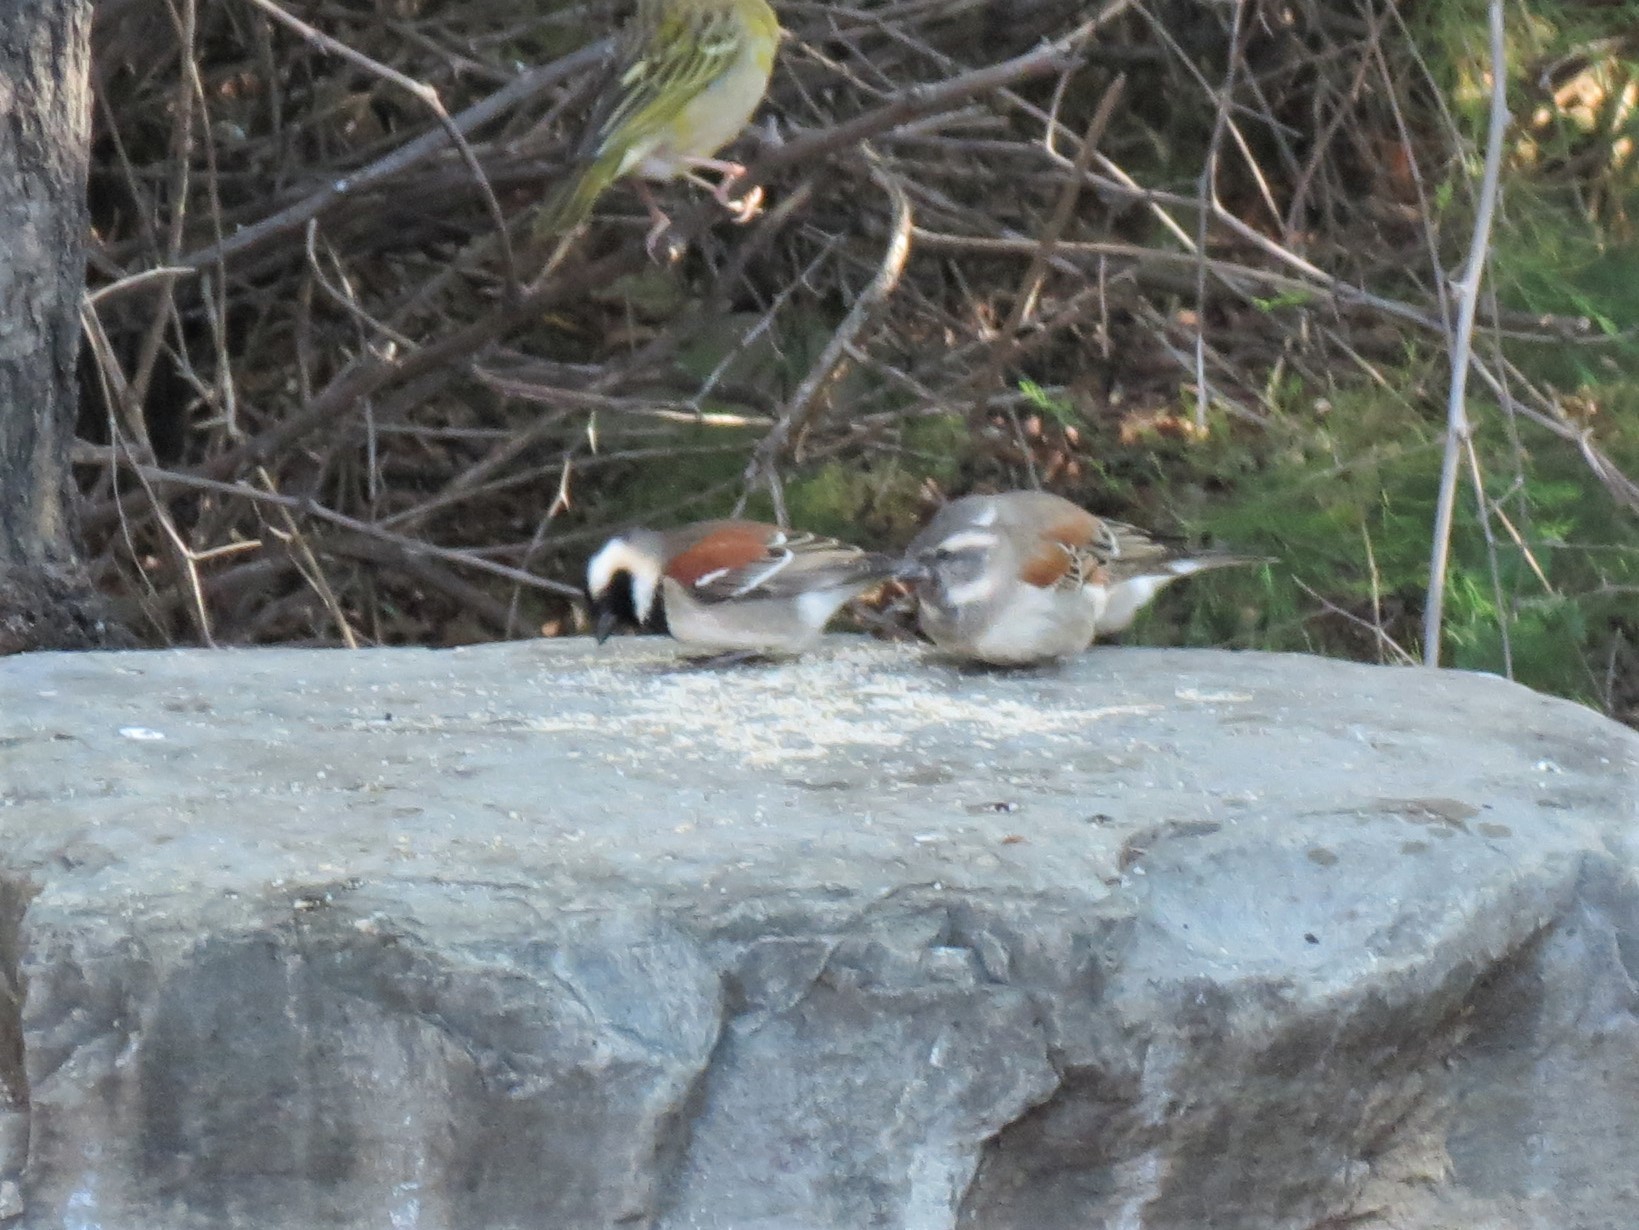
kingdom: Animalia
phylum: Chordata
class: Aves
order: Passeriformes
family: Passeridae
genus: Passer
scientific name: Passer melanurus
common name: Cape sparrow
